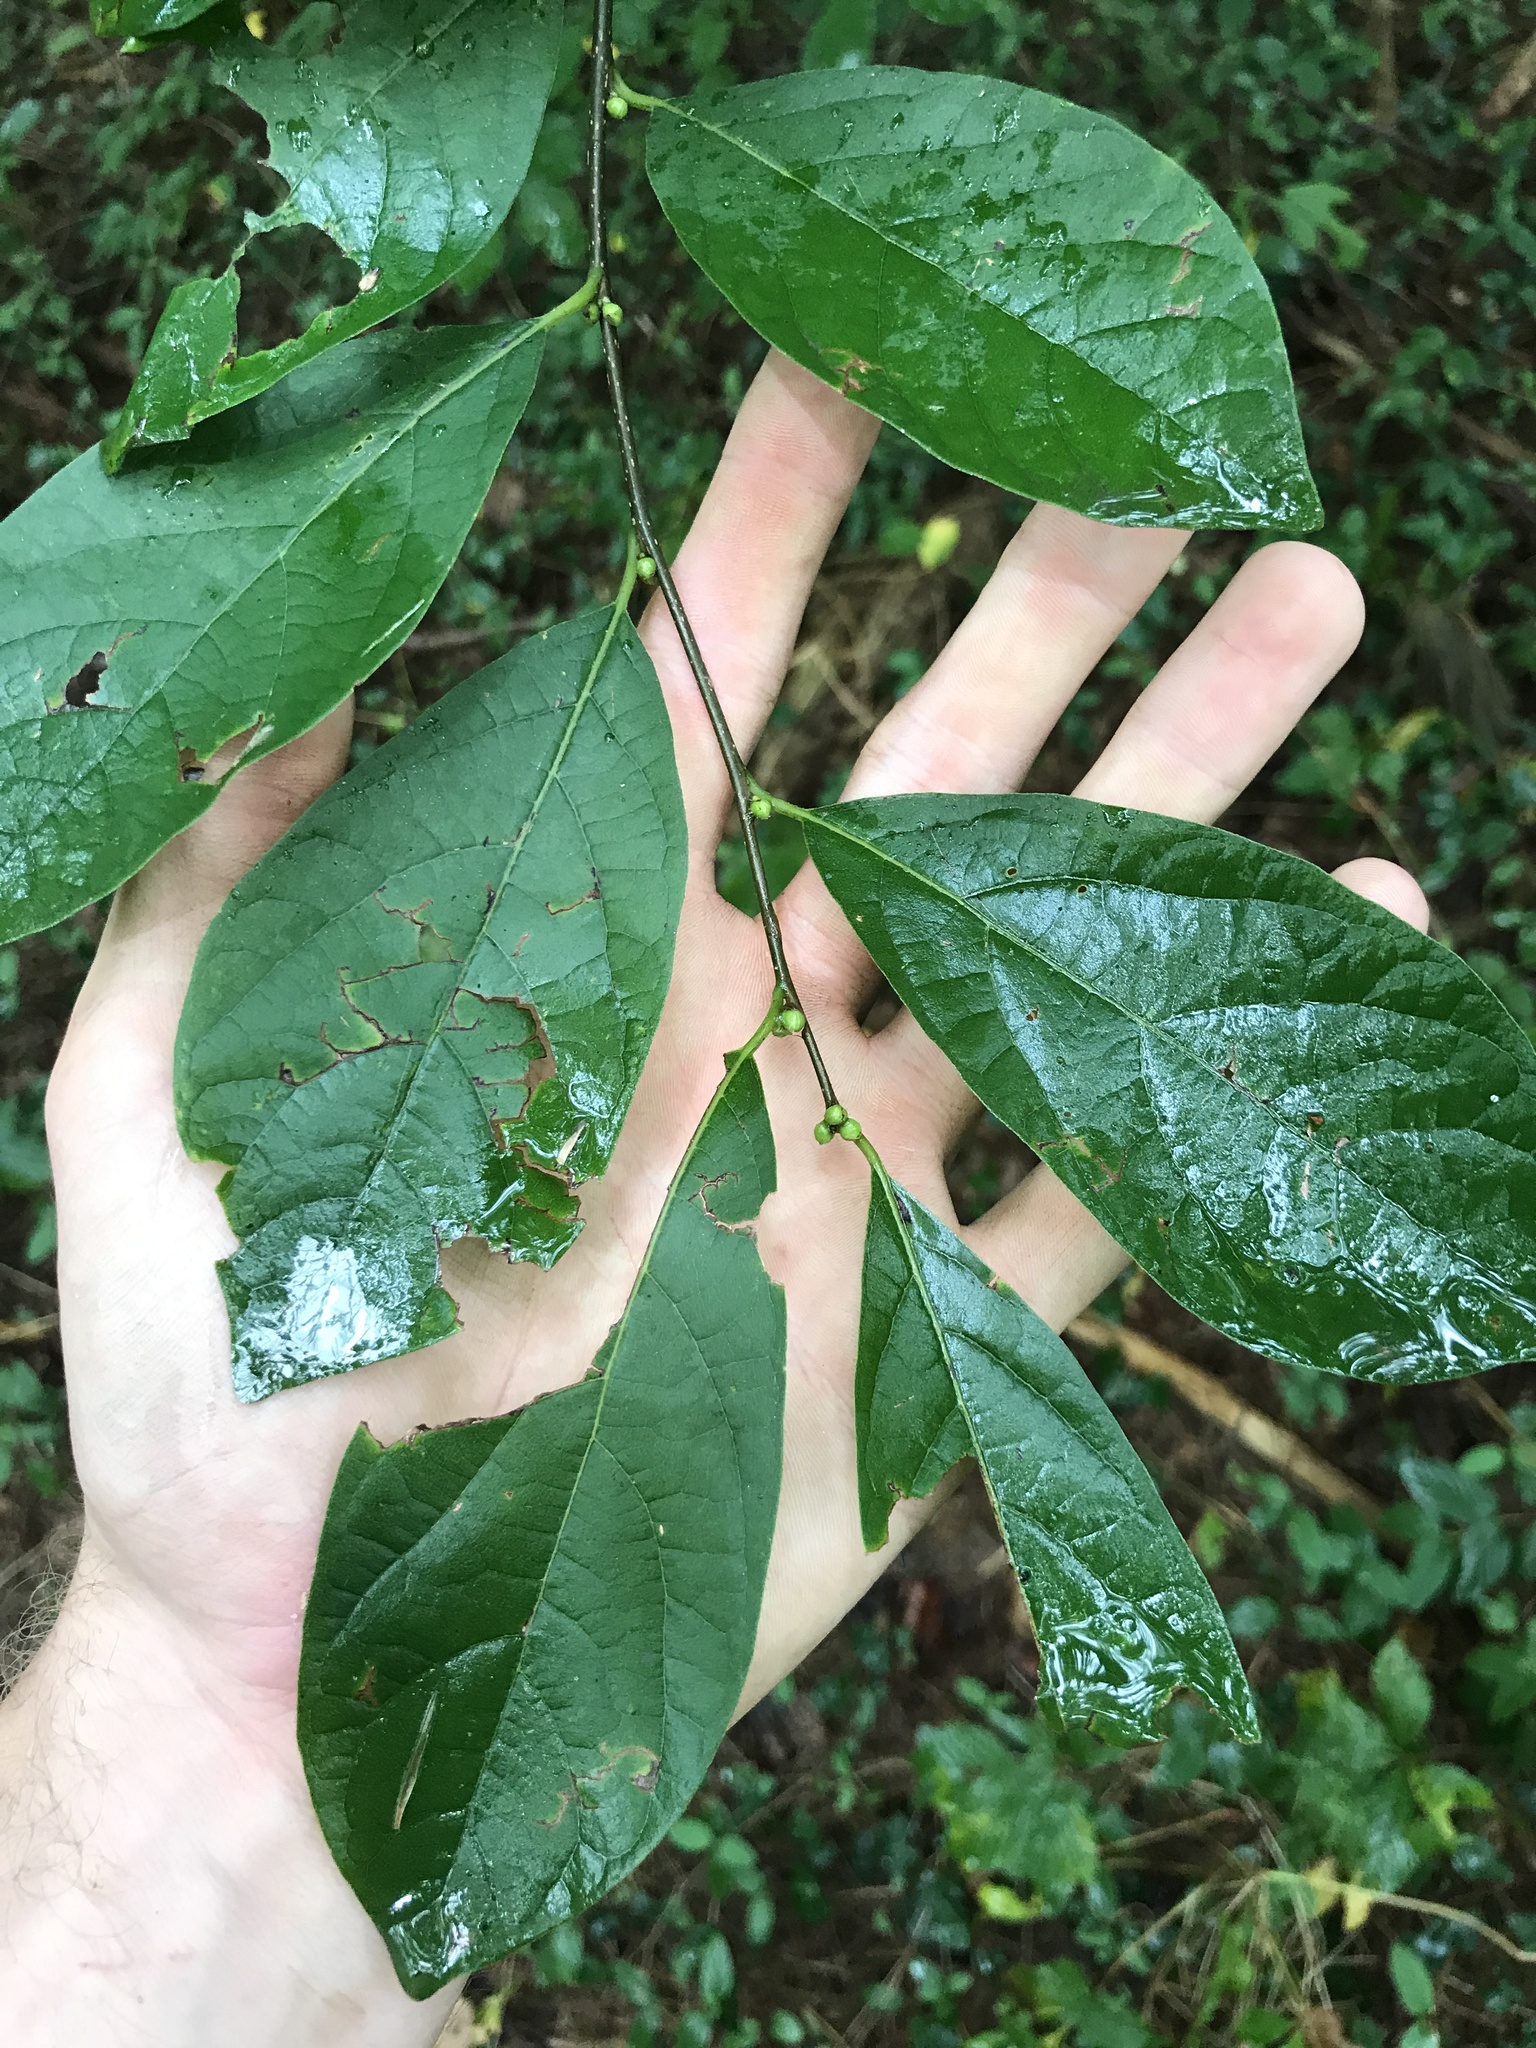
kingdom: Plantae
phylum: Tracheophyta
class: Magnoliopsida
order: Laurales
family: Lauraceae
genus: Lindera
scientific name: Lindera benzoin
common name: Spicebush
